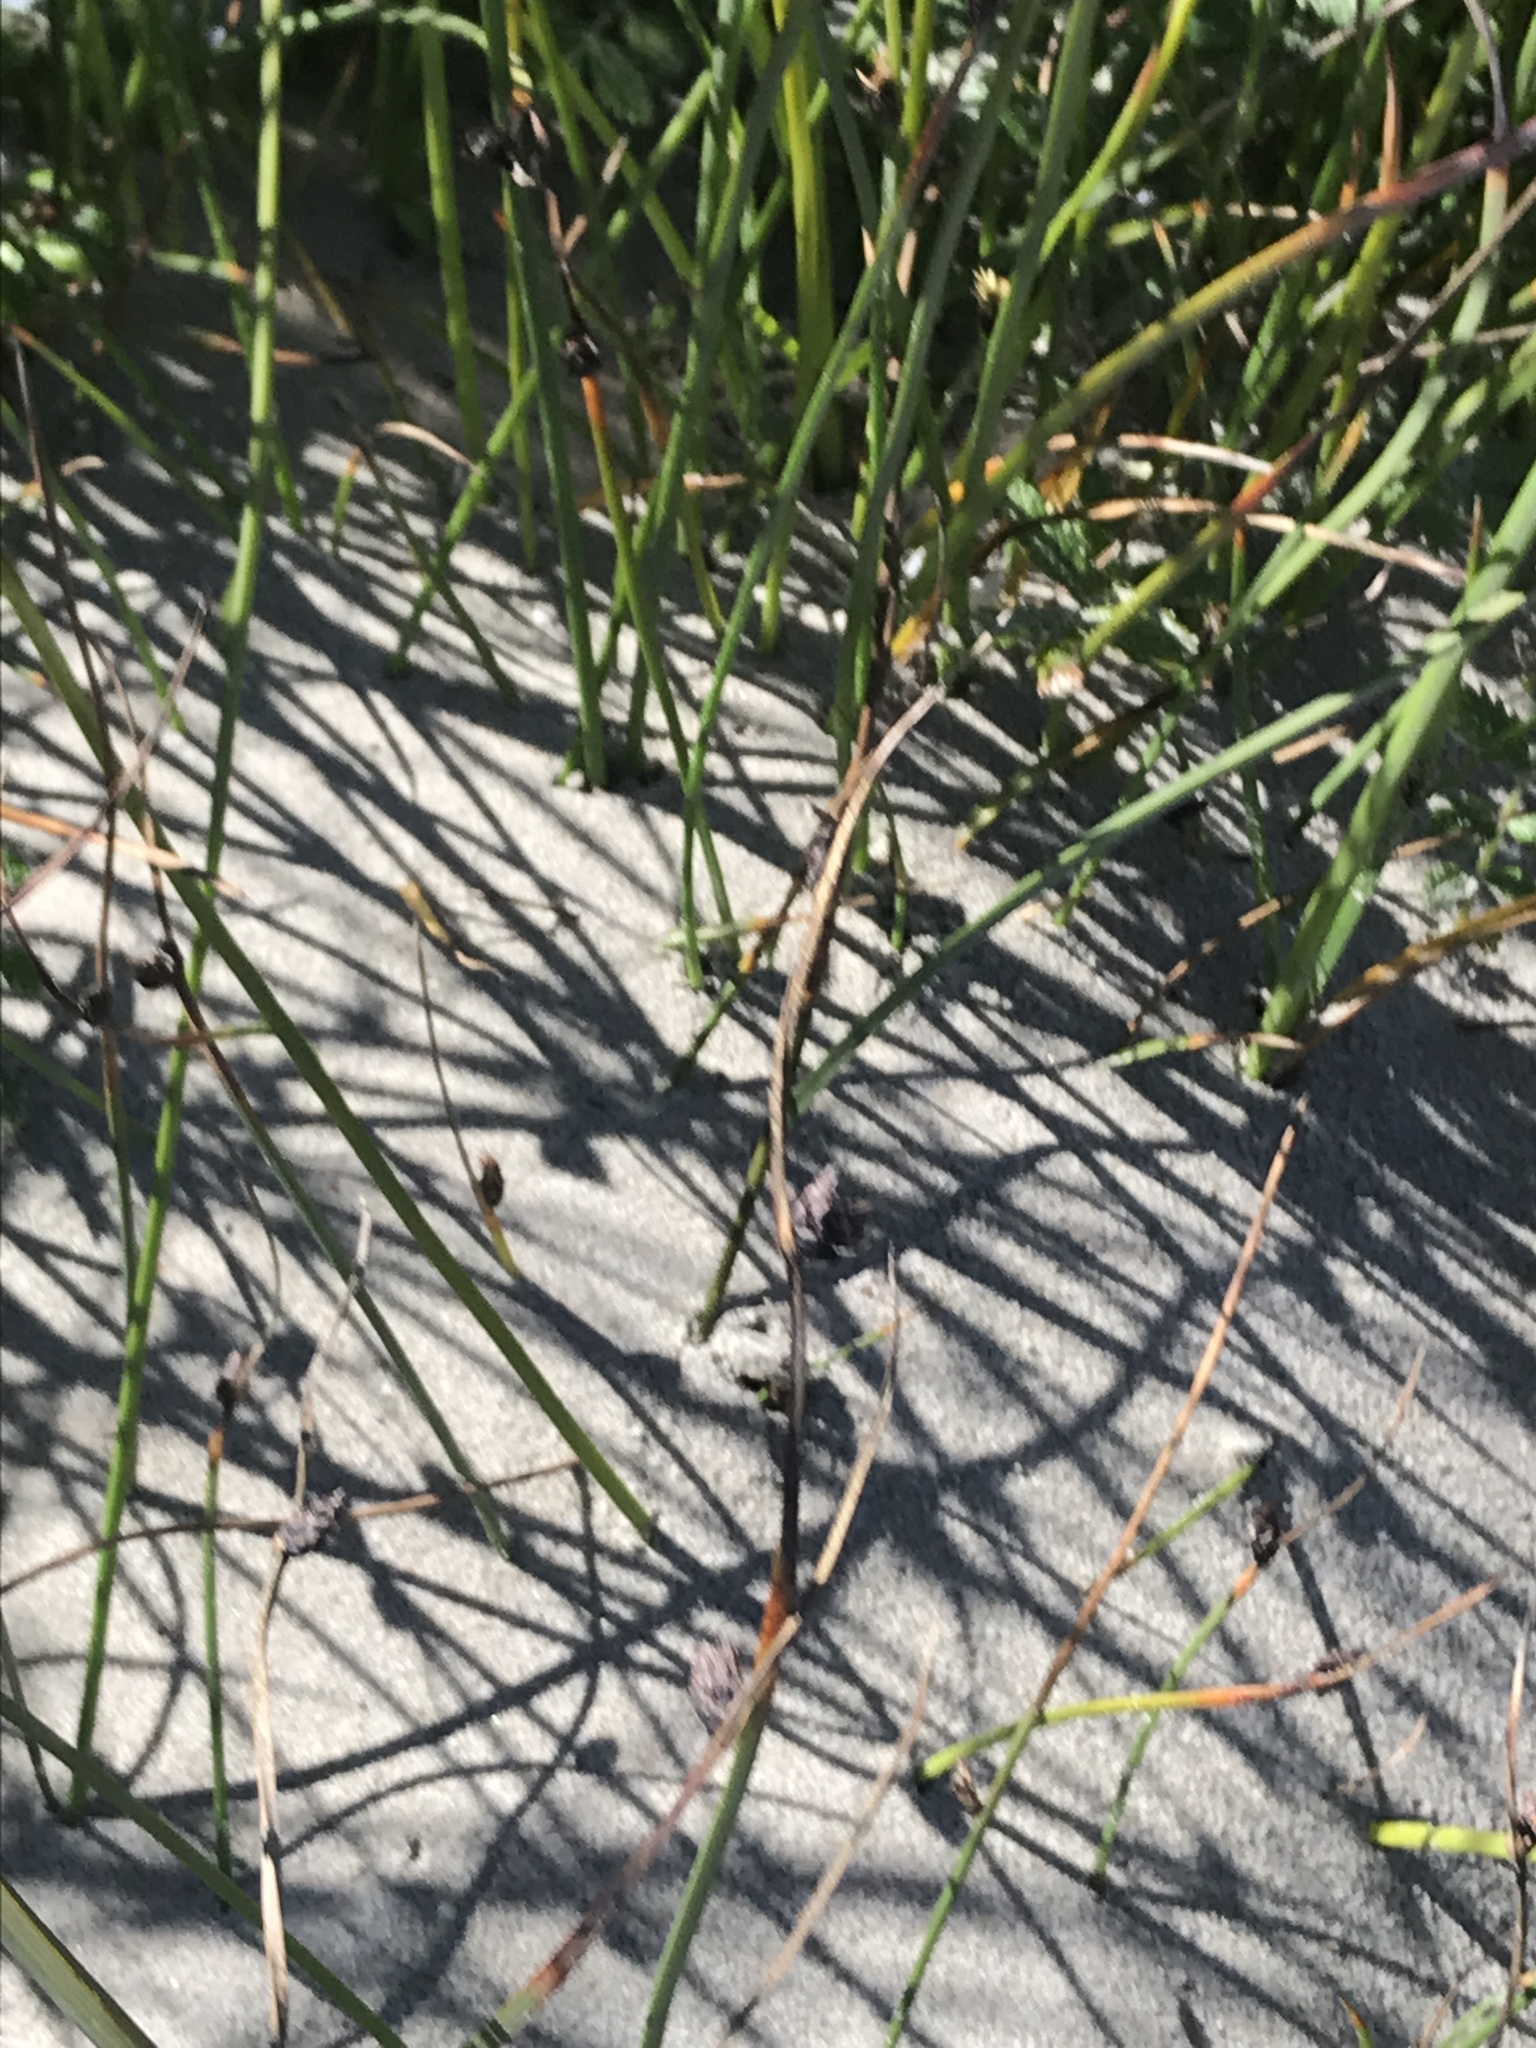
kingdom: Plantae
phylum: Tracheophyta
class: Liliopsida
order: Poales
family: Cyperaceae
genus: Schoenoplectus
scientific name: Schoenoplectus pungens
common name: Sharp club-rush
